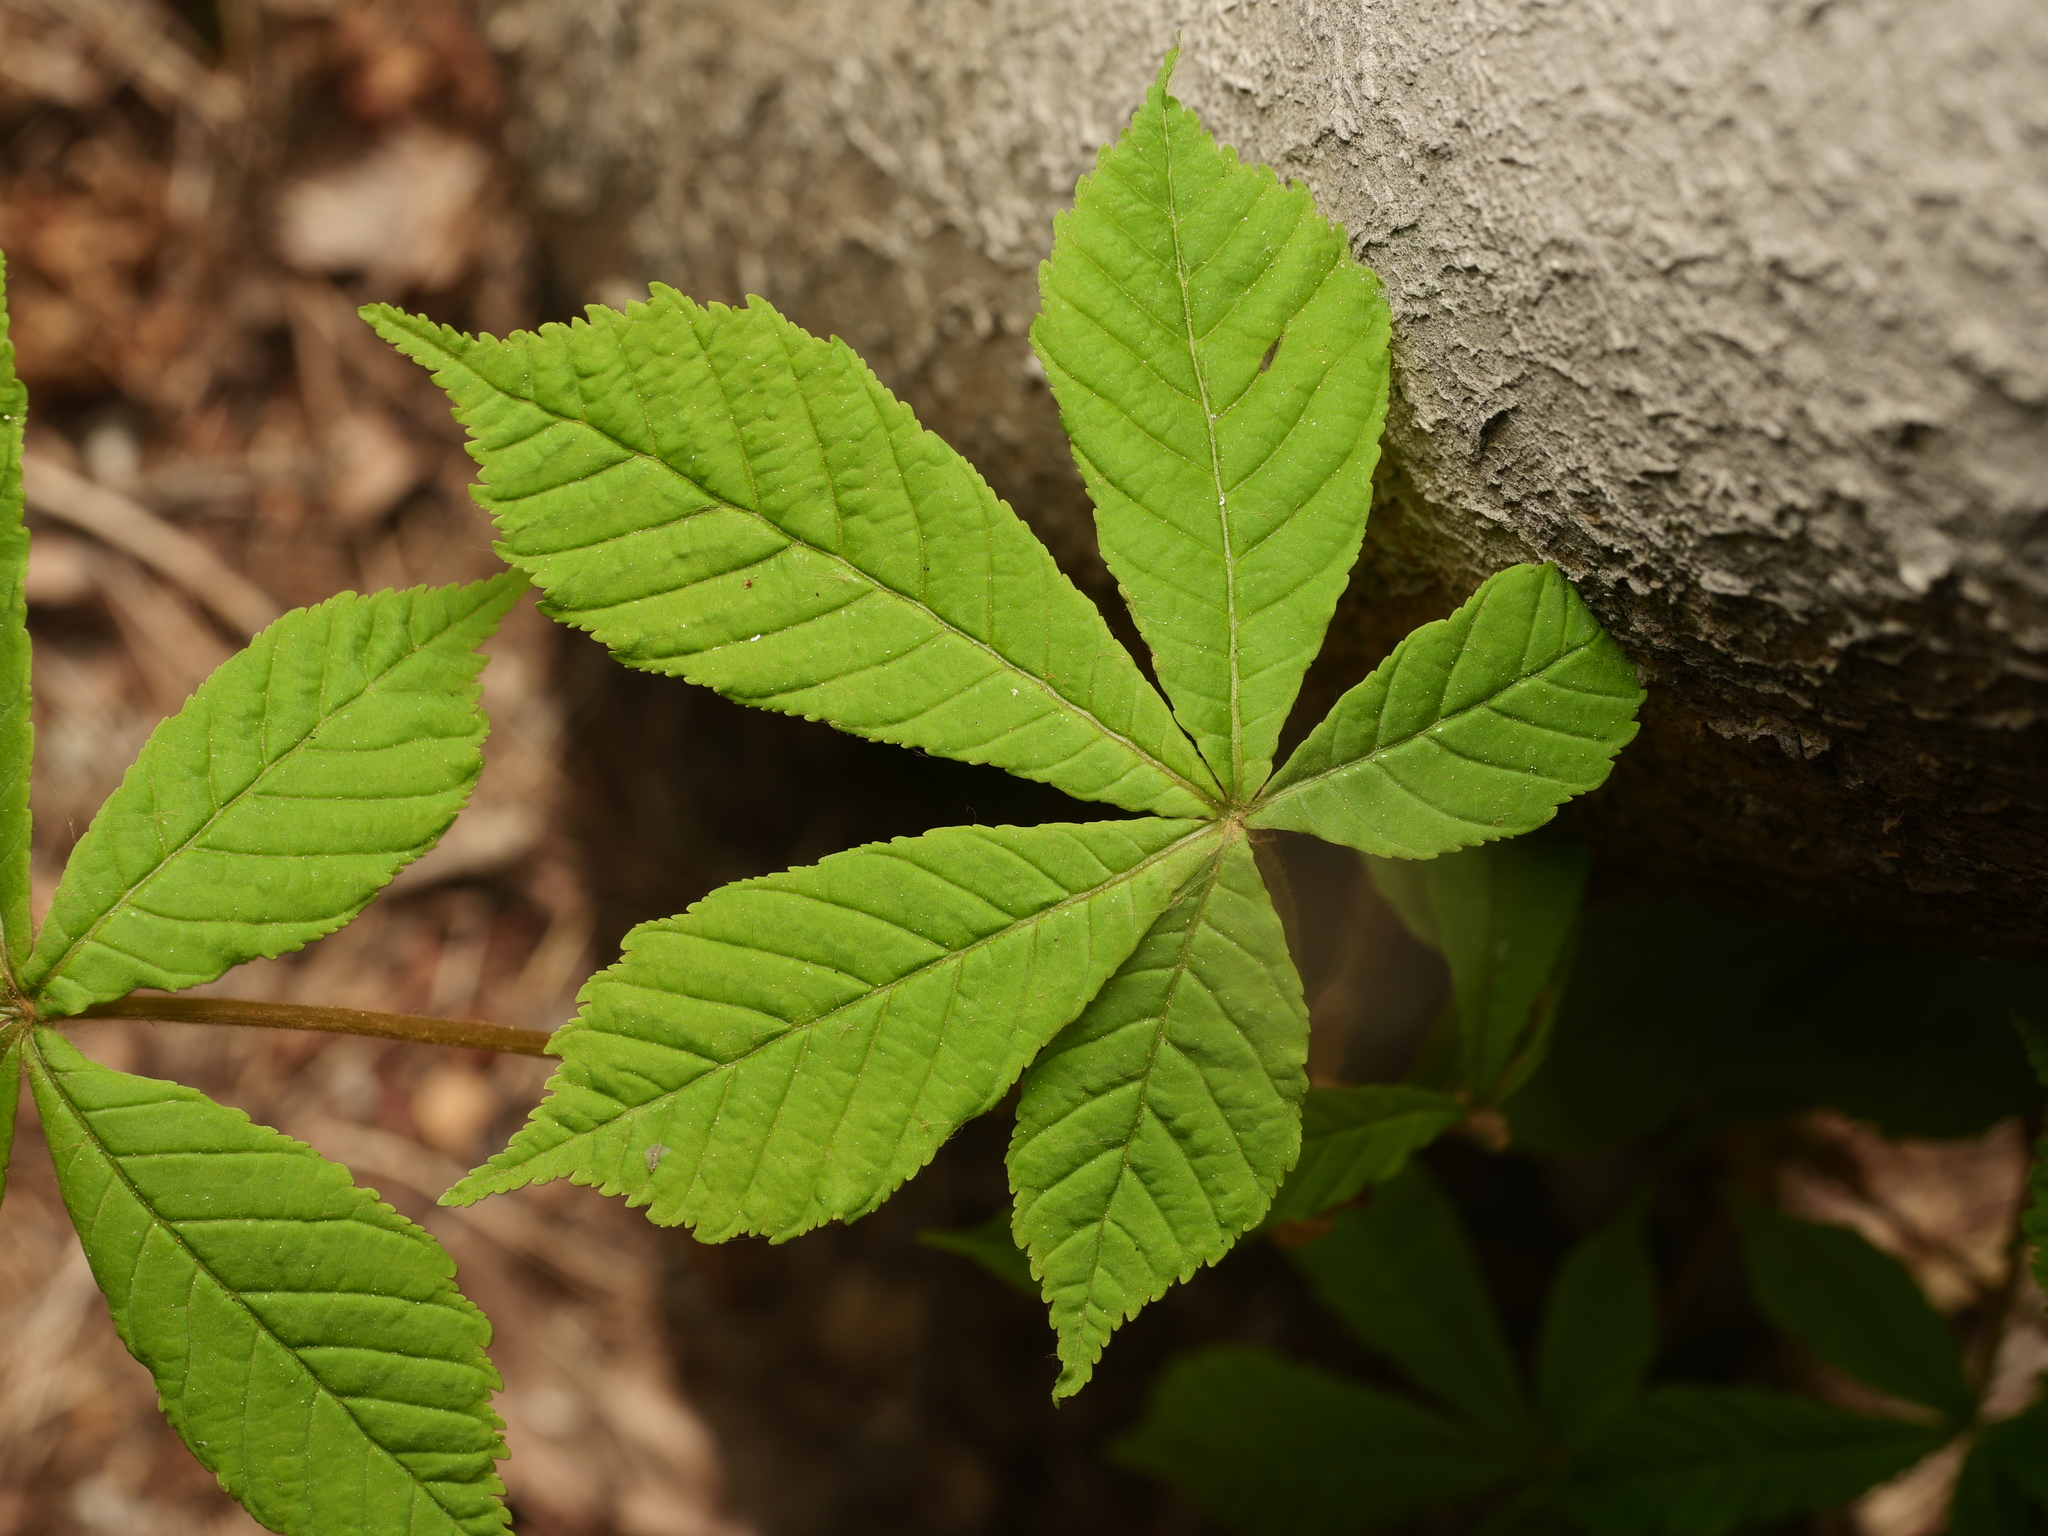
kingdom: Plantae
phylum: Tracheophyta
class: Magnoliopsida
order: Sapindales
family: Sapindaceae
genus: Aesculus
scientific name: Aesculus hippocastanum
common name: Horse-chestnut
